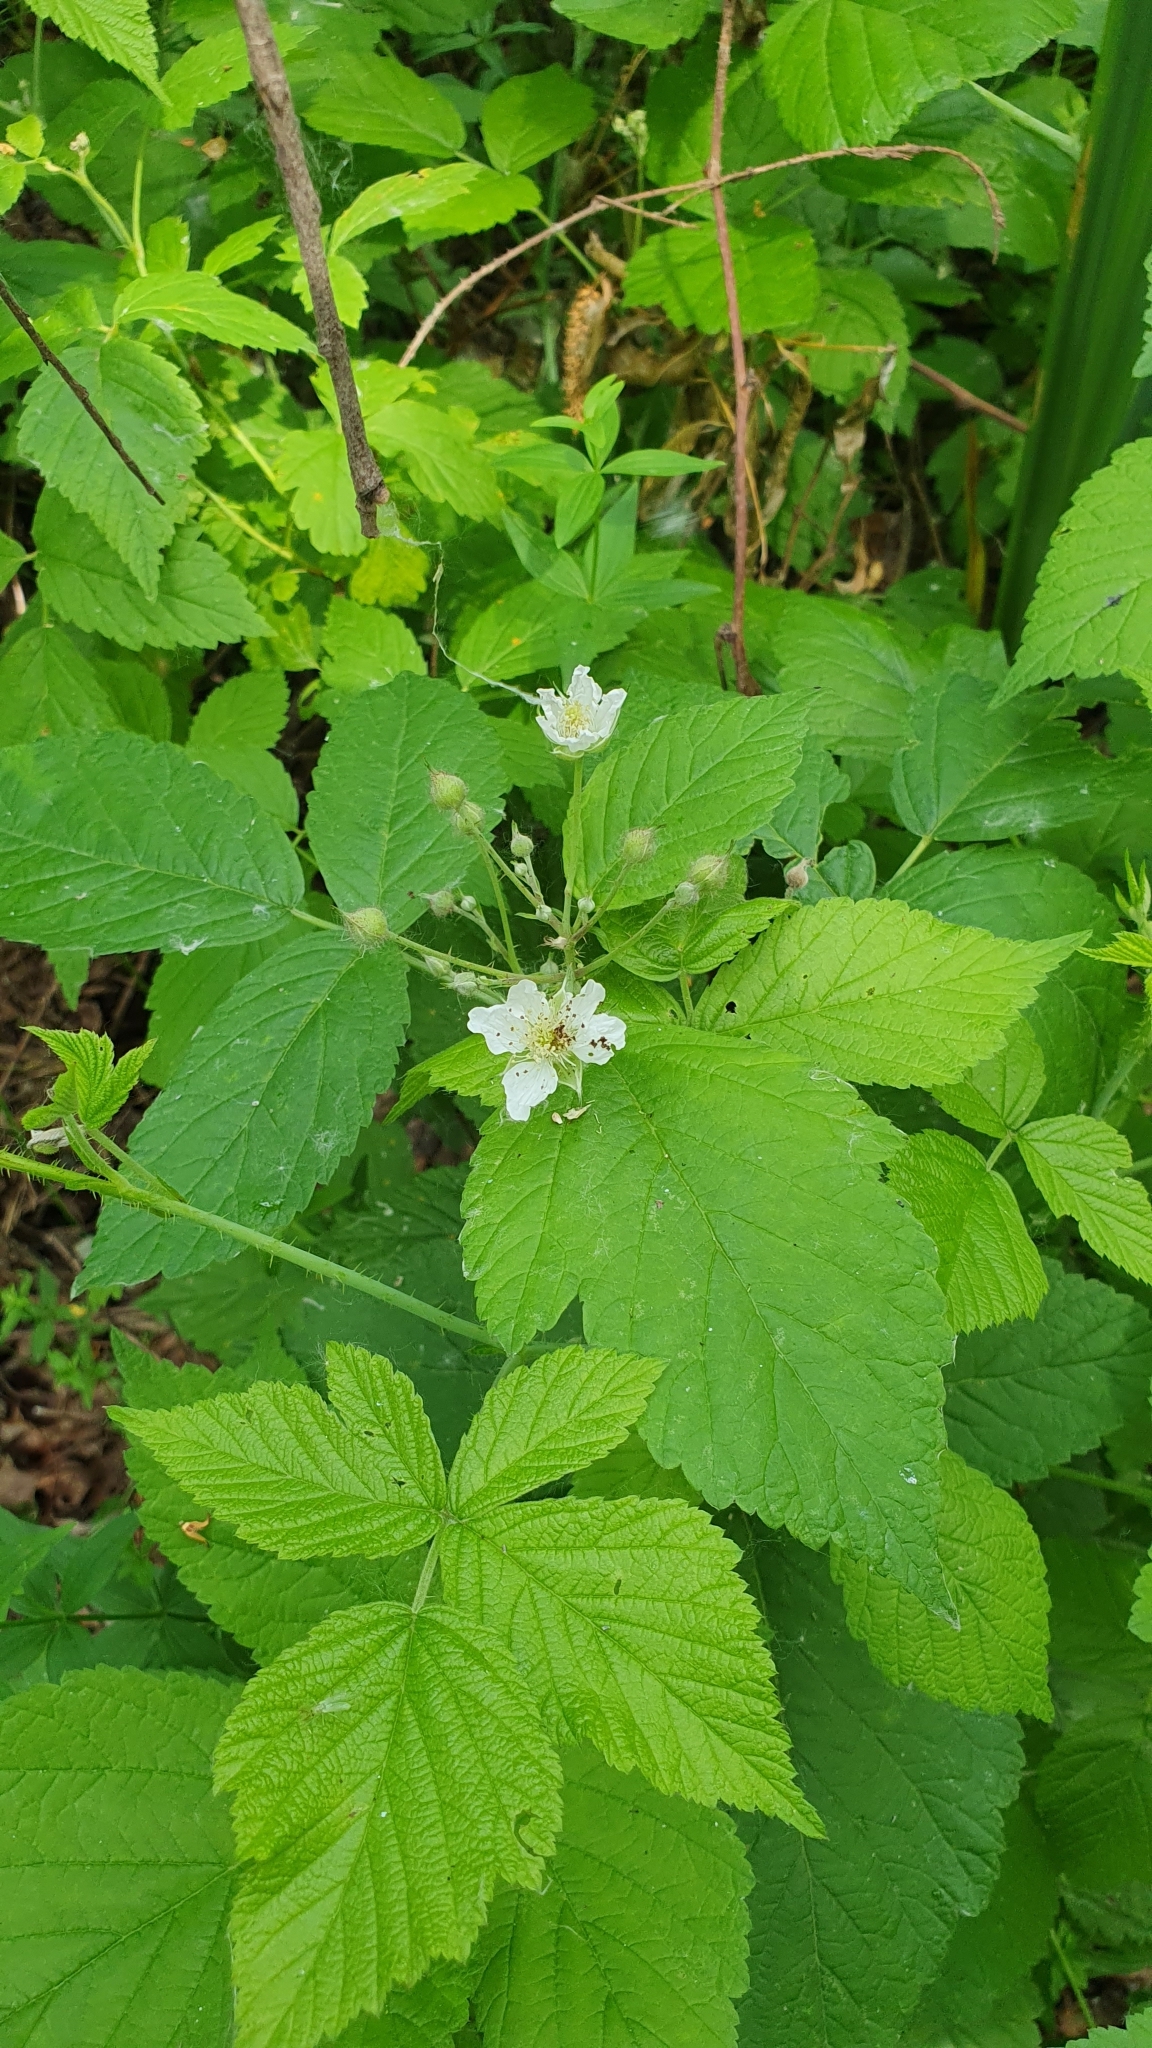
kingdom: Plantae
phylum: Tracheophyta
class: Magnoliopsida
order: Rosales
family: Rosaceae
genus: Rubus
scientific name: Rubus caesius
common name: Dewberry
